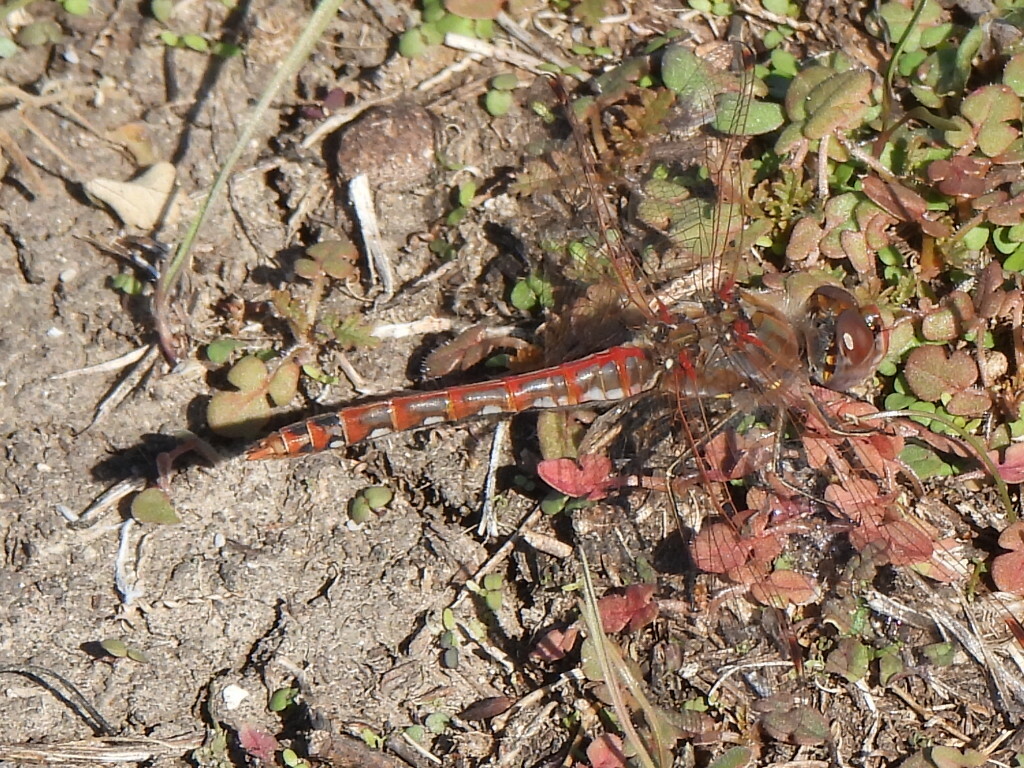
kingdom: Animalia
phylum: Arthropoda
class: Insecta
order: Odonata
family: Libellulidae
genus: Sympetrum
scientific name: Sympetrum corruptum
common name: Variegated meadowhawk
